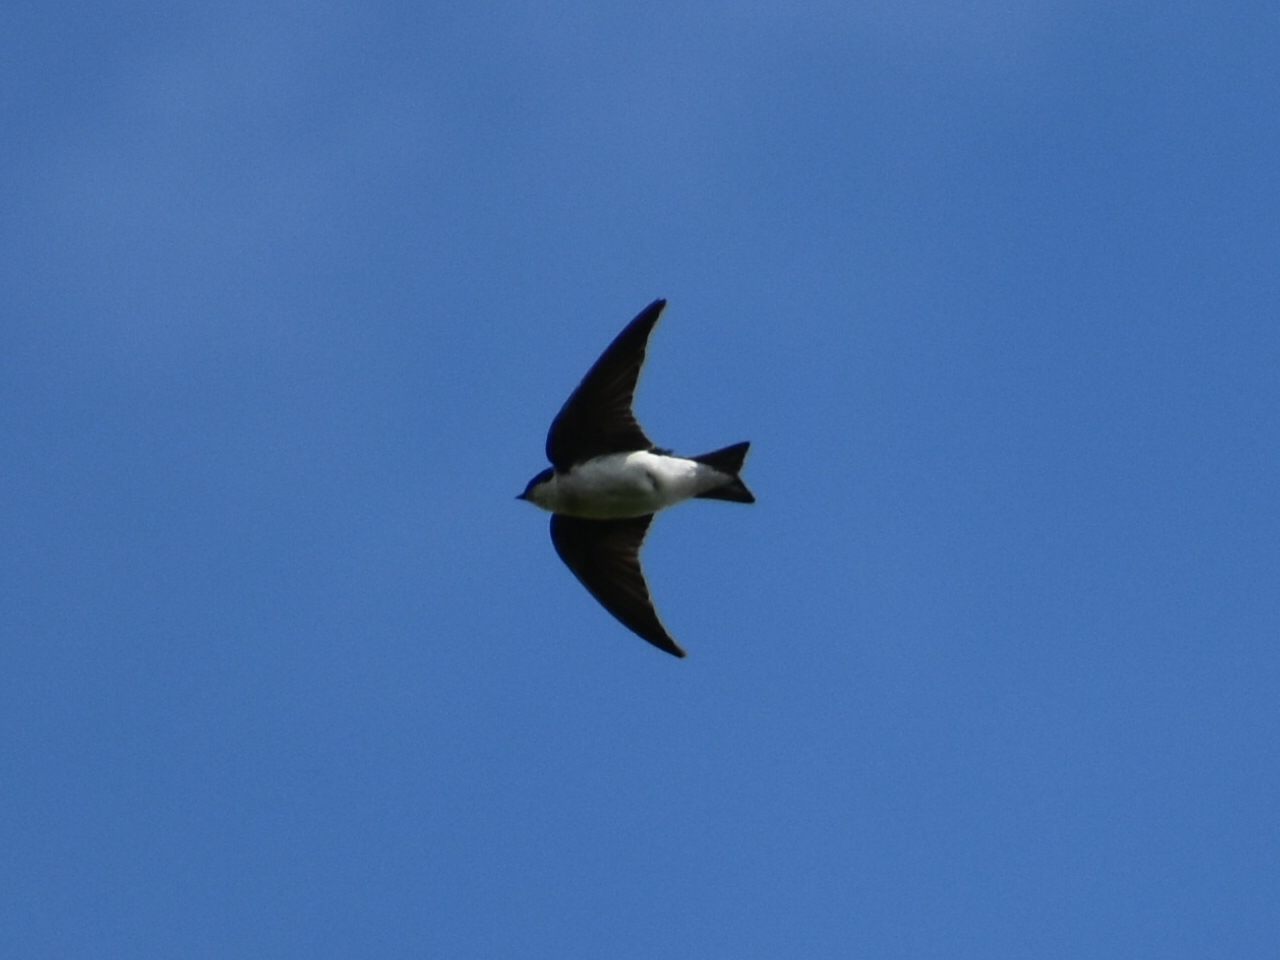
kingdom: Animalia
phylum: Chordata
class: Aves
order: Passeriformes
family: Hirundinidae
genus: Tachycineta
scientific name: Tachycineta bicolor
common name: Tree swallow
